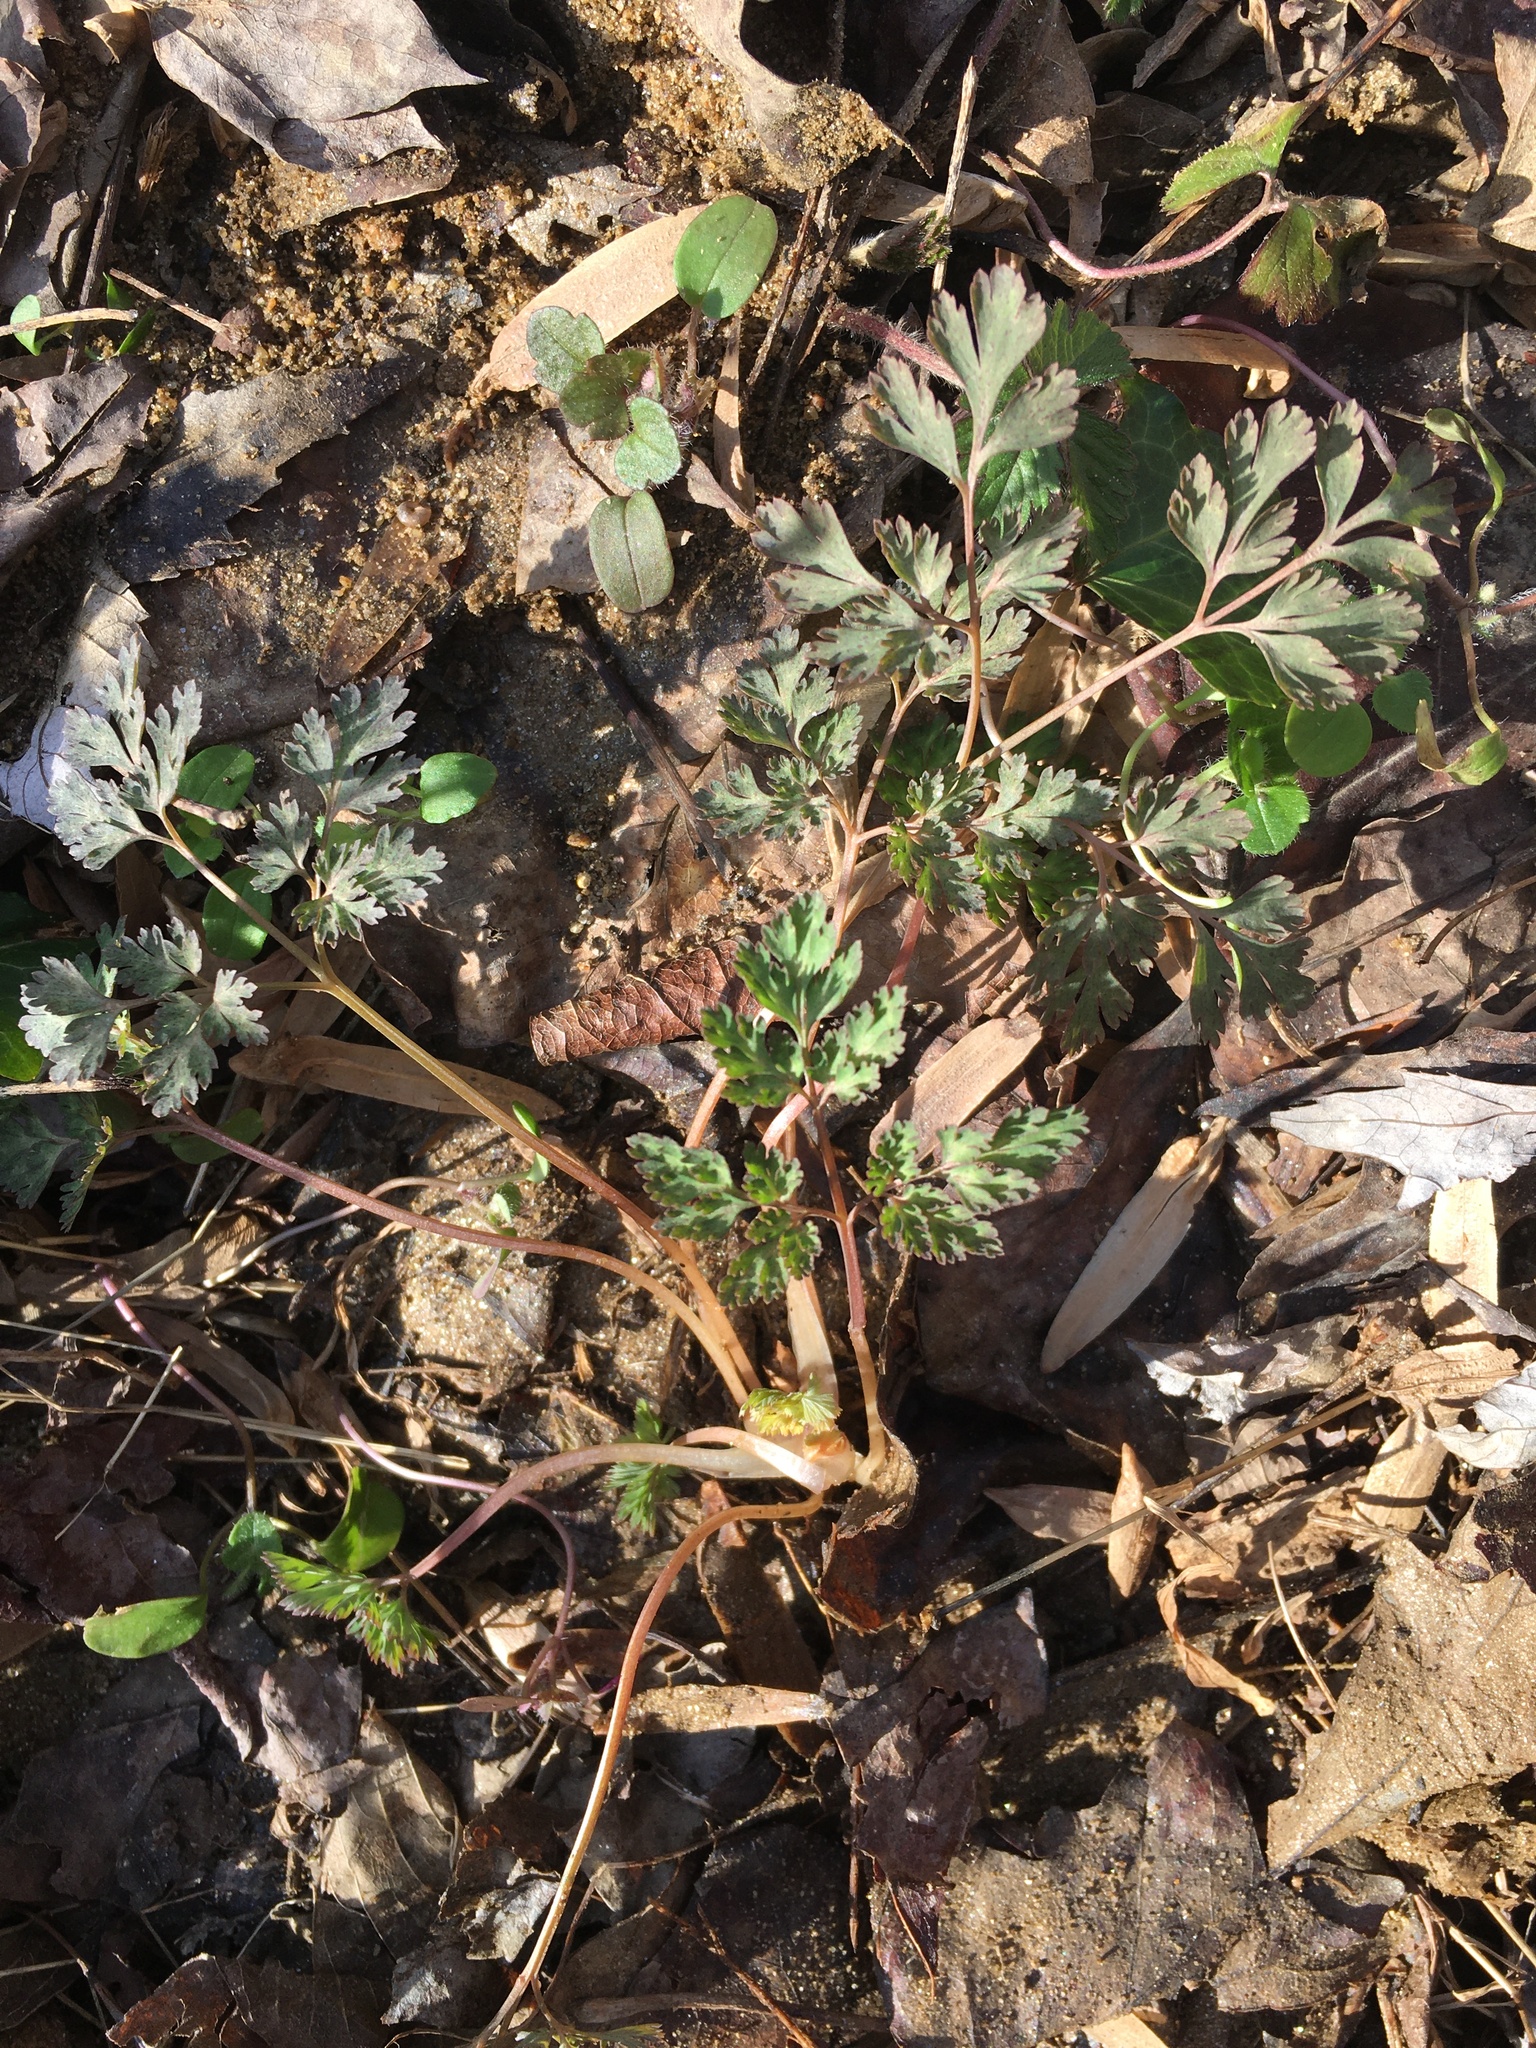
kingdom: Plantae
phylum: Tracheophyta
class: Magnoliopsida
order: Ranunculales
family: Papaveraceae
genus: Corydalis
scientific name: Corydalis incisa
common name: Incised fumewort
